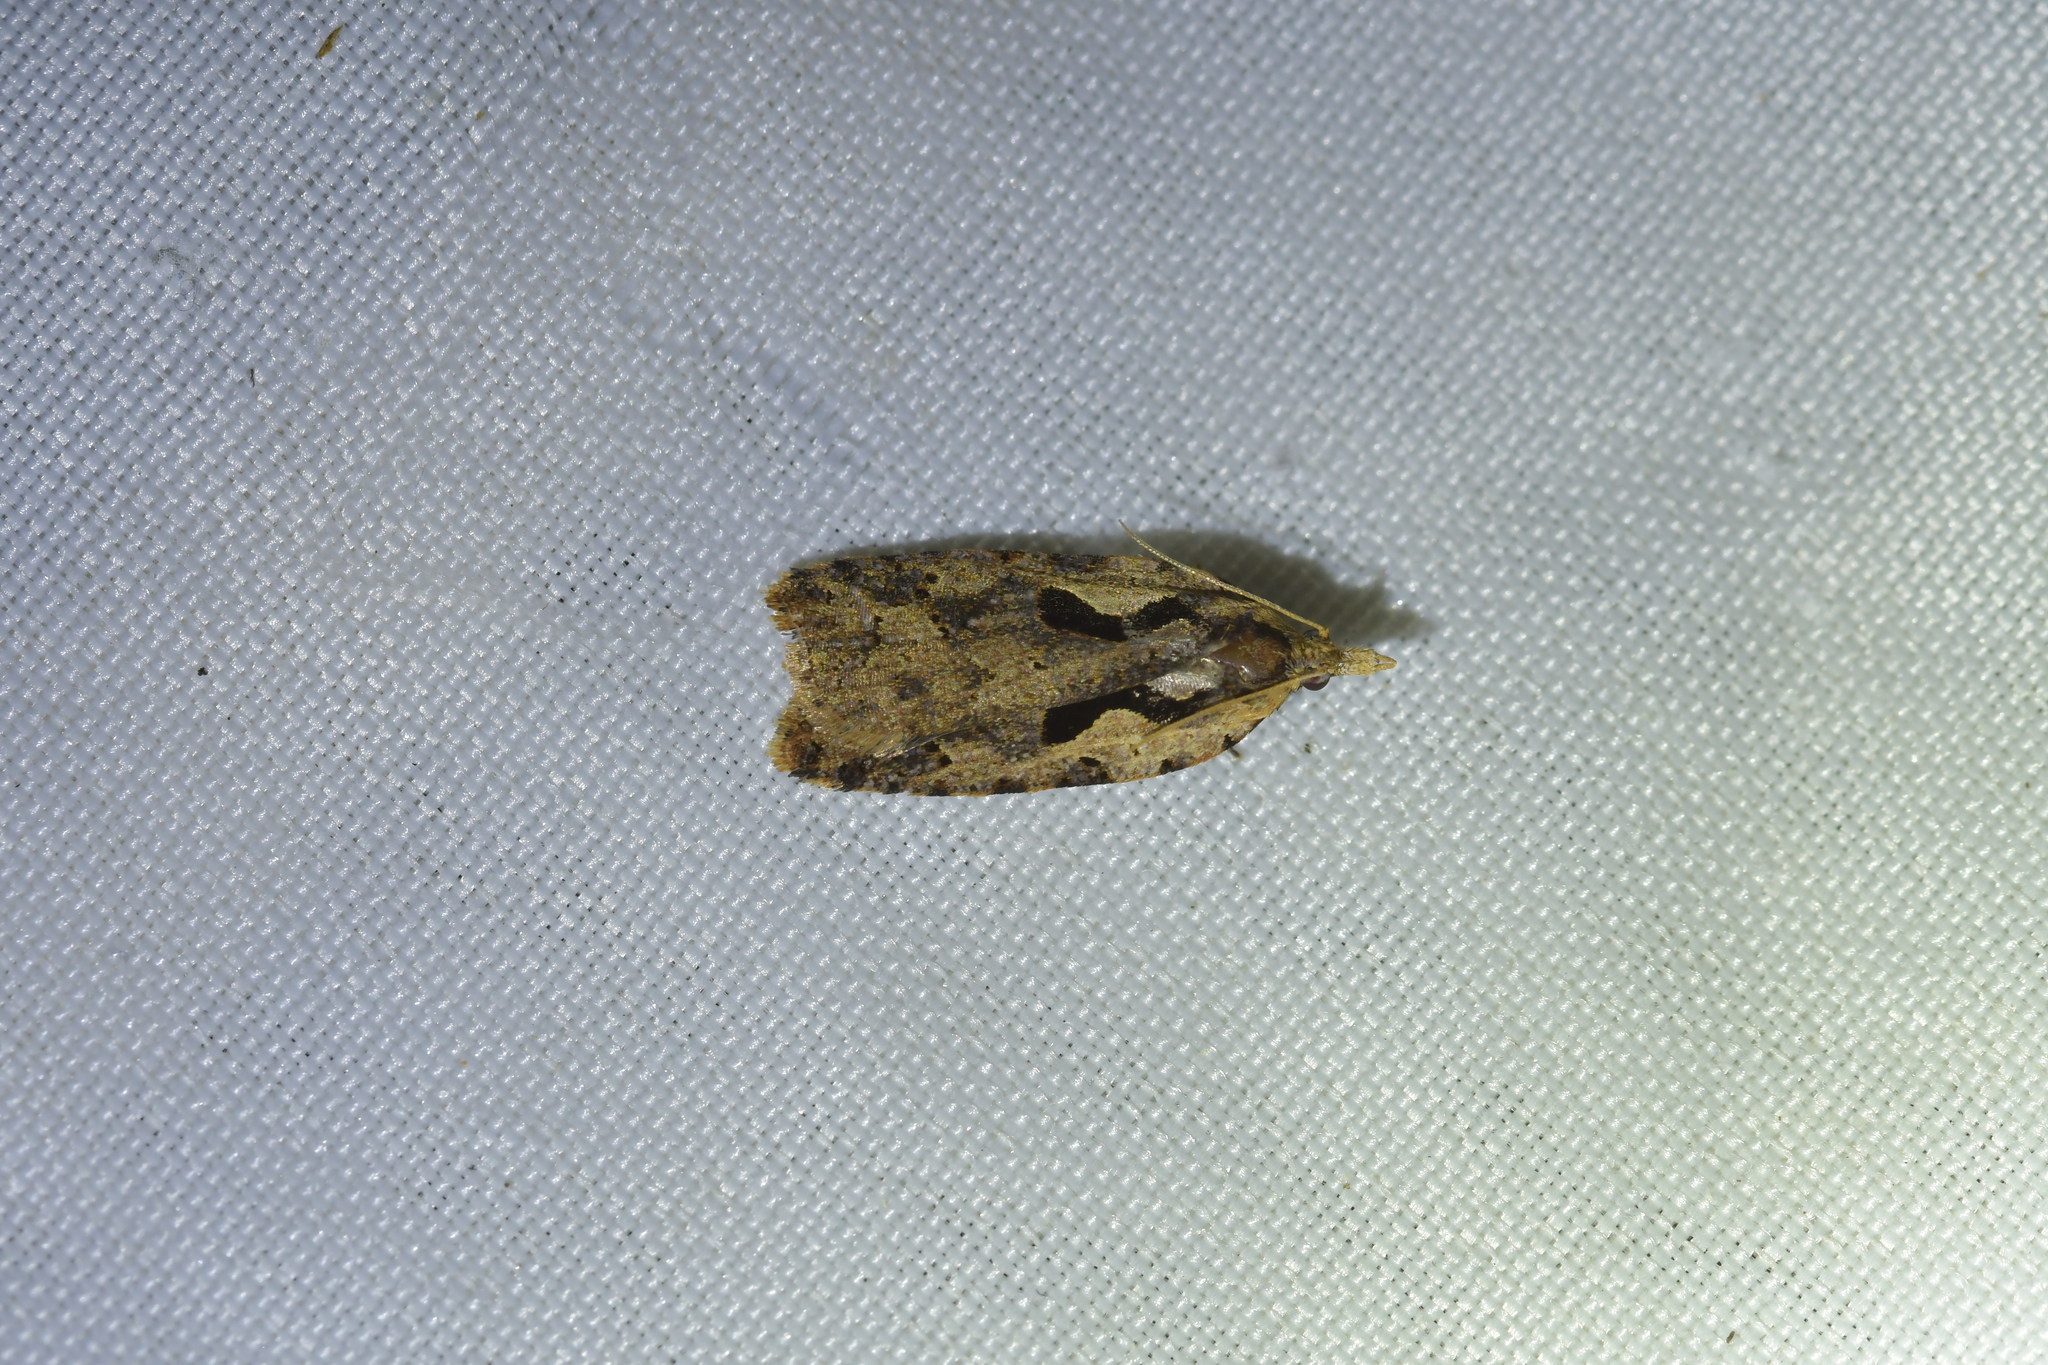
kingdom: Animalia
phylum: Arthropoda
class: Insecta
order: Lepidoptera
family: Tortricidae
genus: Cnephasia
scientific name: Cnephasia jactatana
